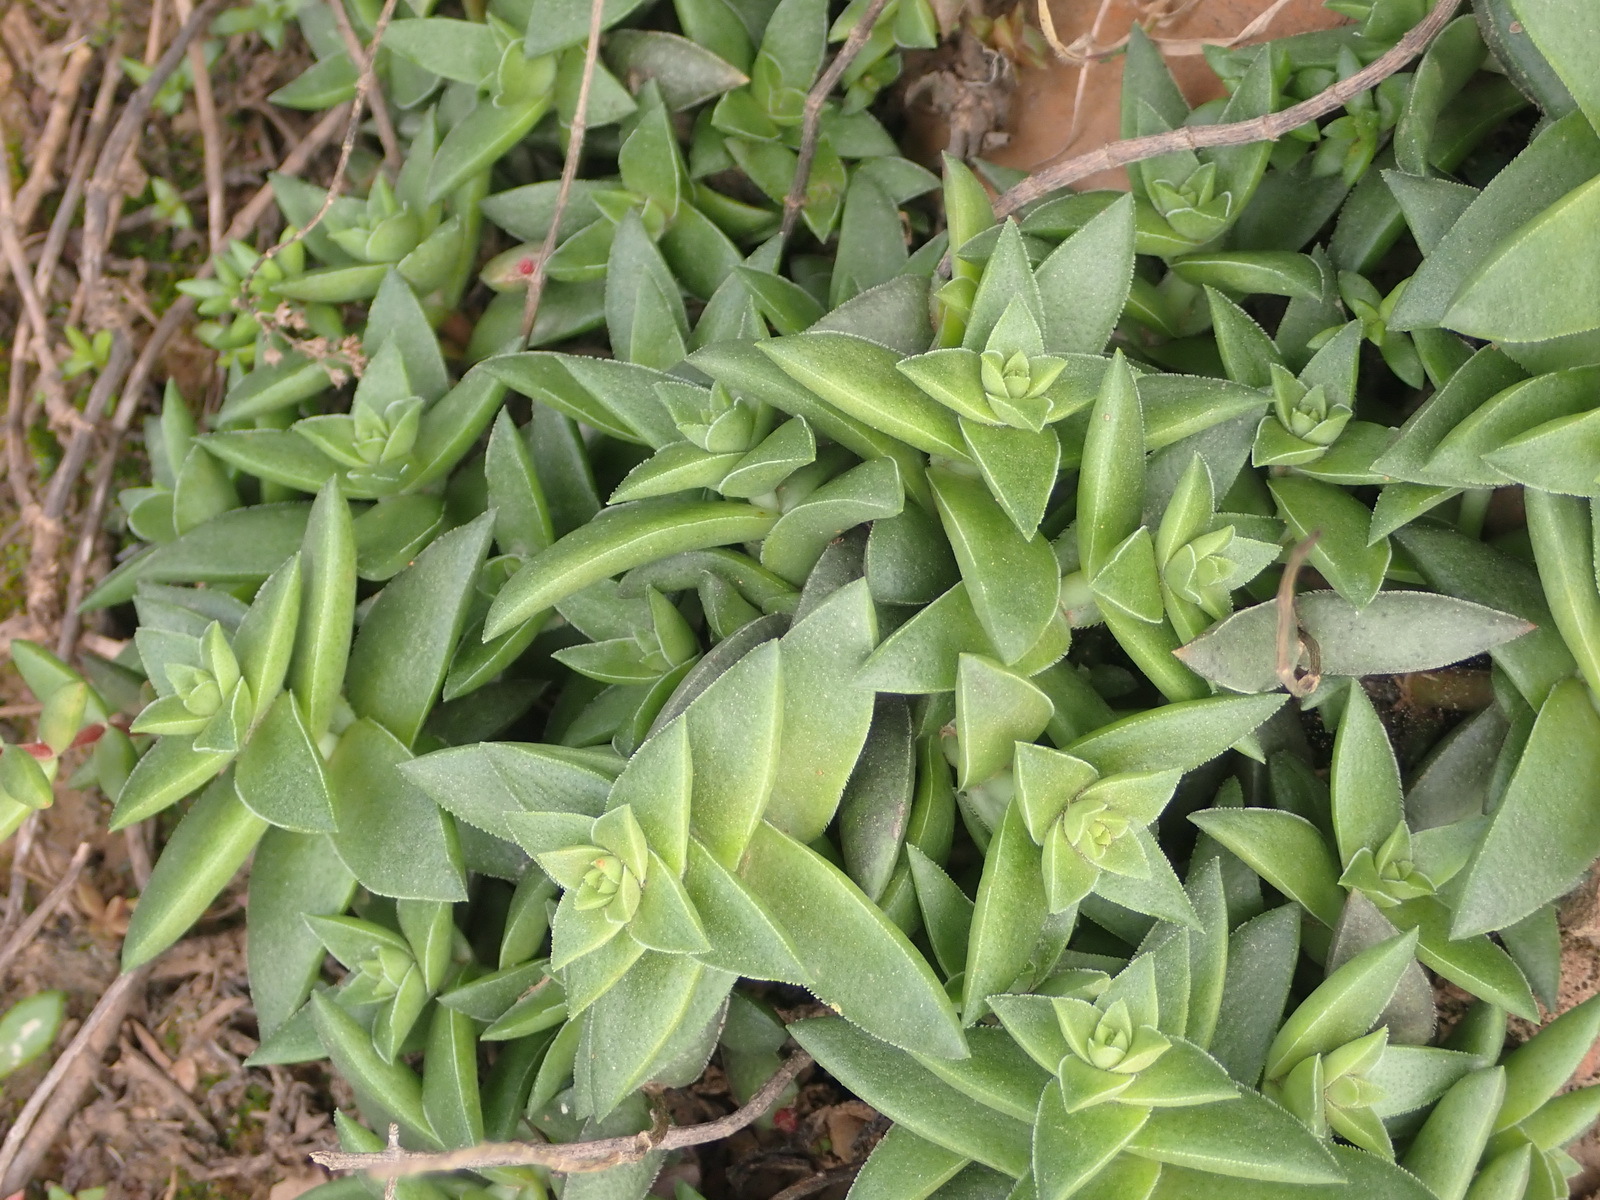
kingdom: Plantae
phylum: Tracheophyta
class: Magnoliopsida
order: Saxifragales
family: Crassulaceae
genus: Crassula
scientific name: Crassula capitella
